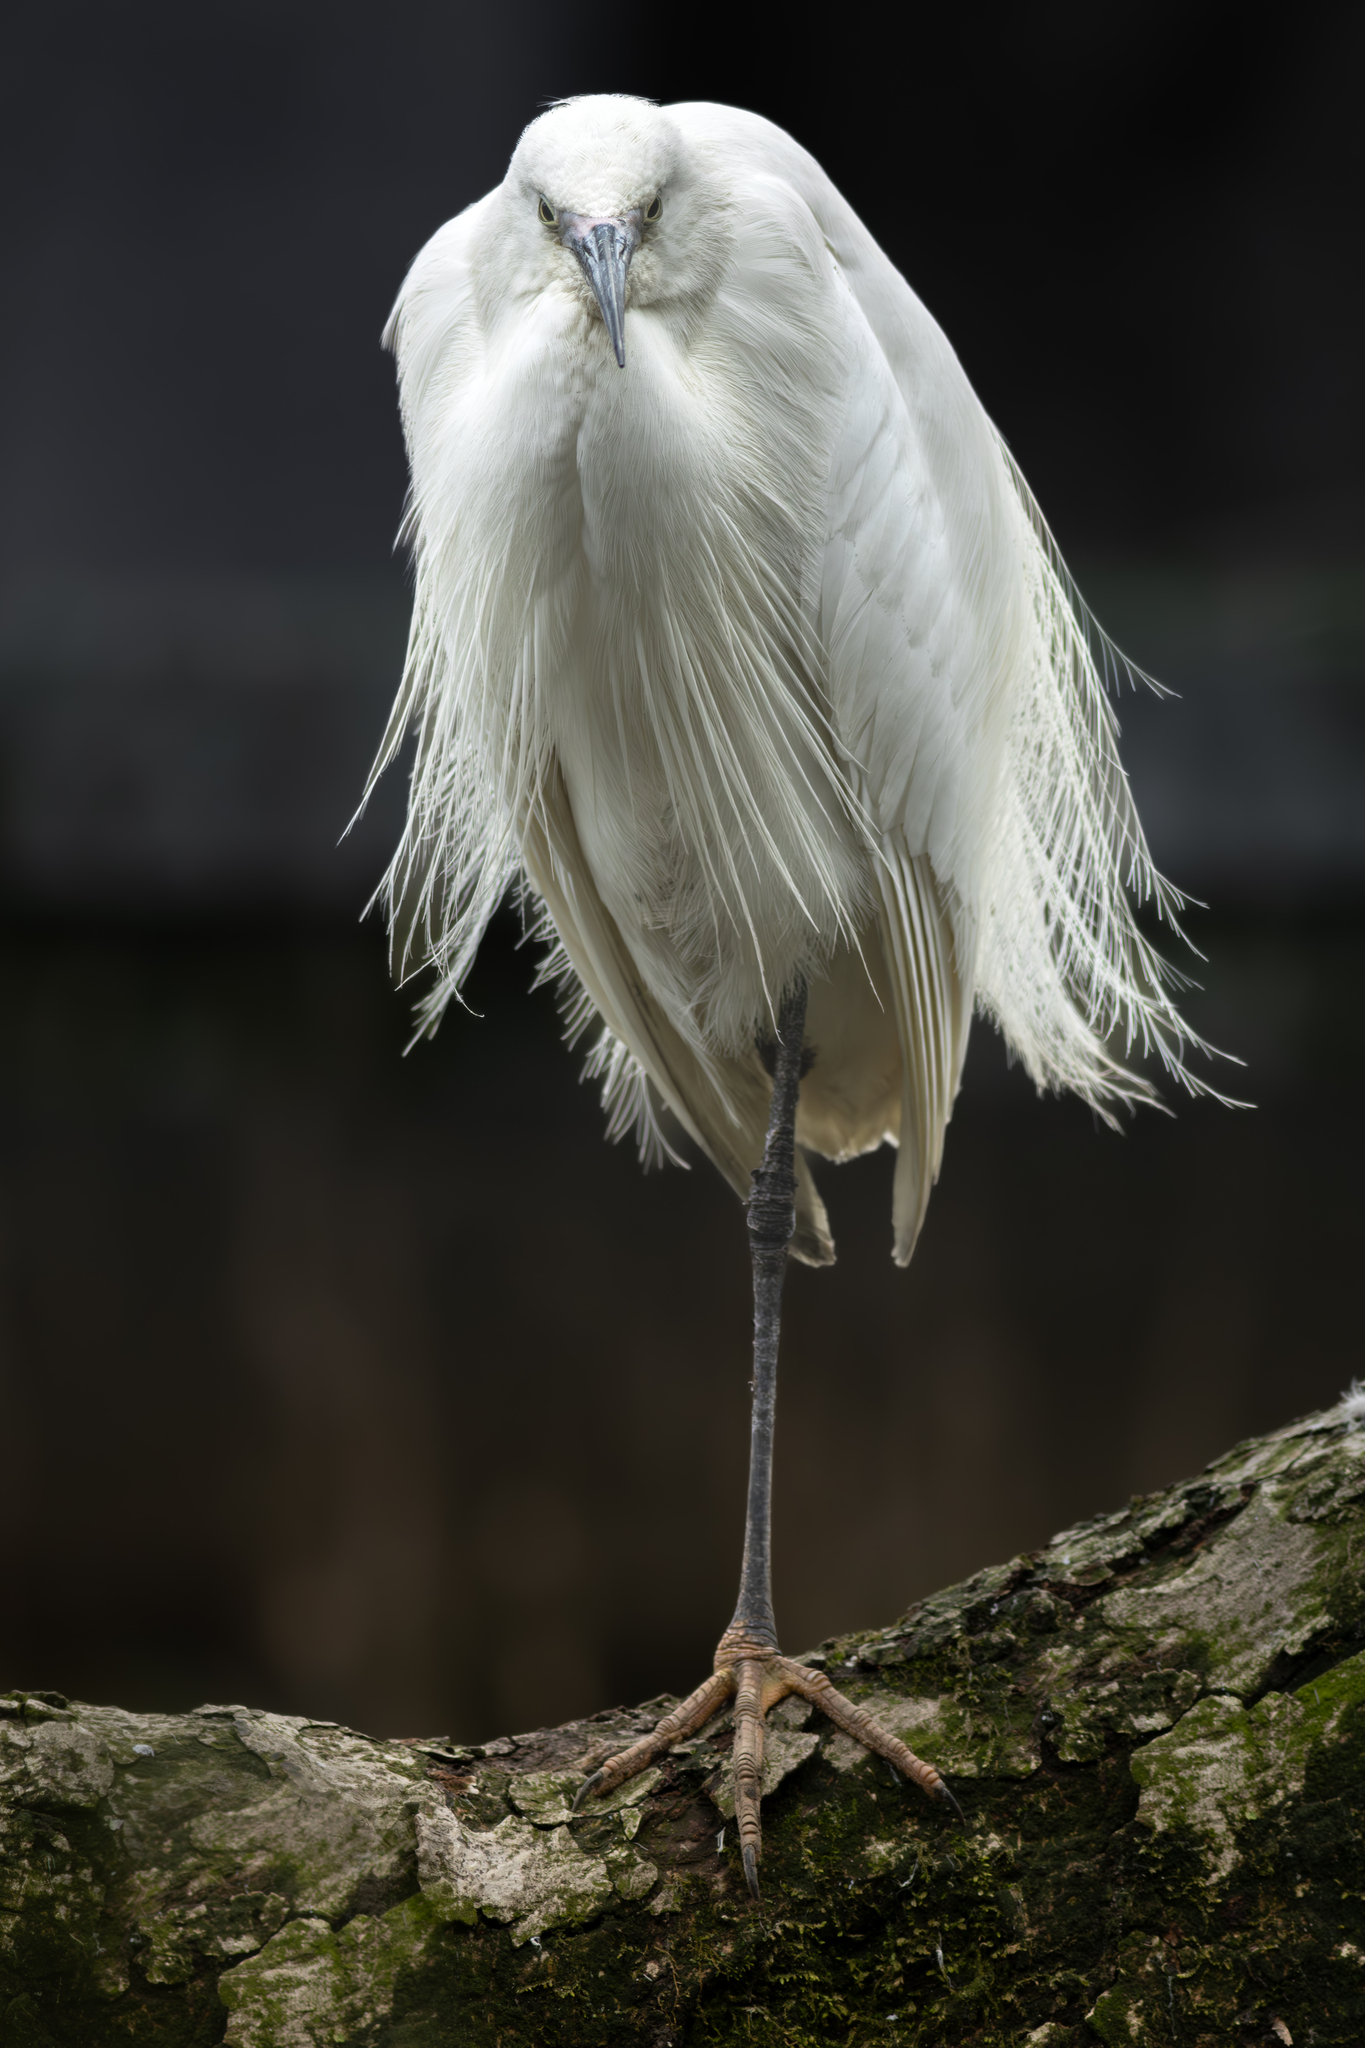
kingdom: Animalia
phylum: Chordata
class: Aves
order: Pelecaniformes
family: Ardeidae
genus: Egretta
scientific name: Egretta garzetta
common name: Little egret
